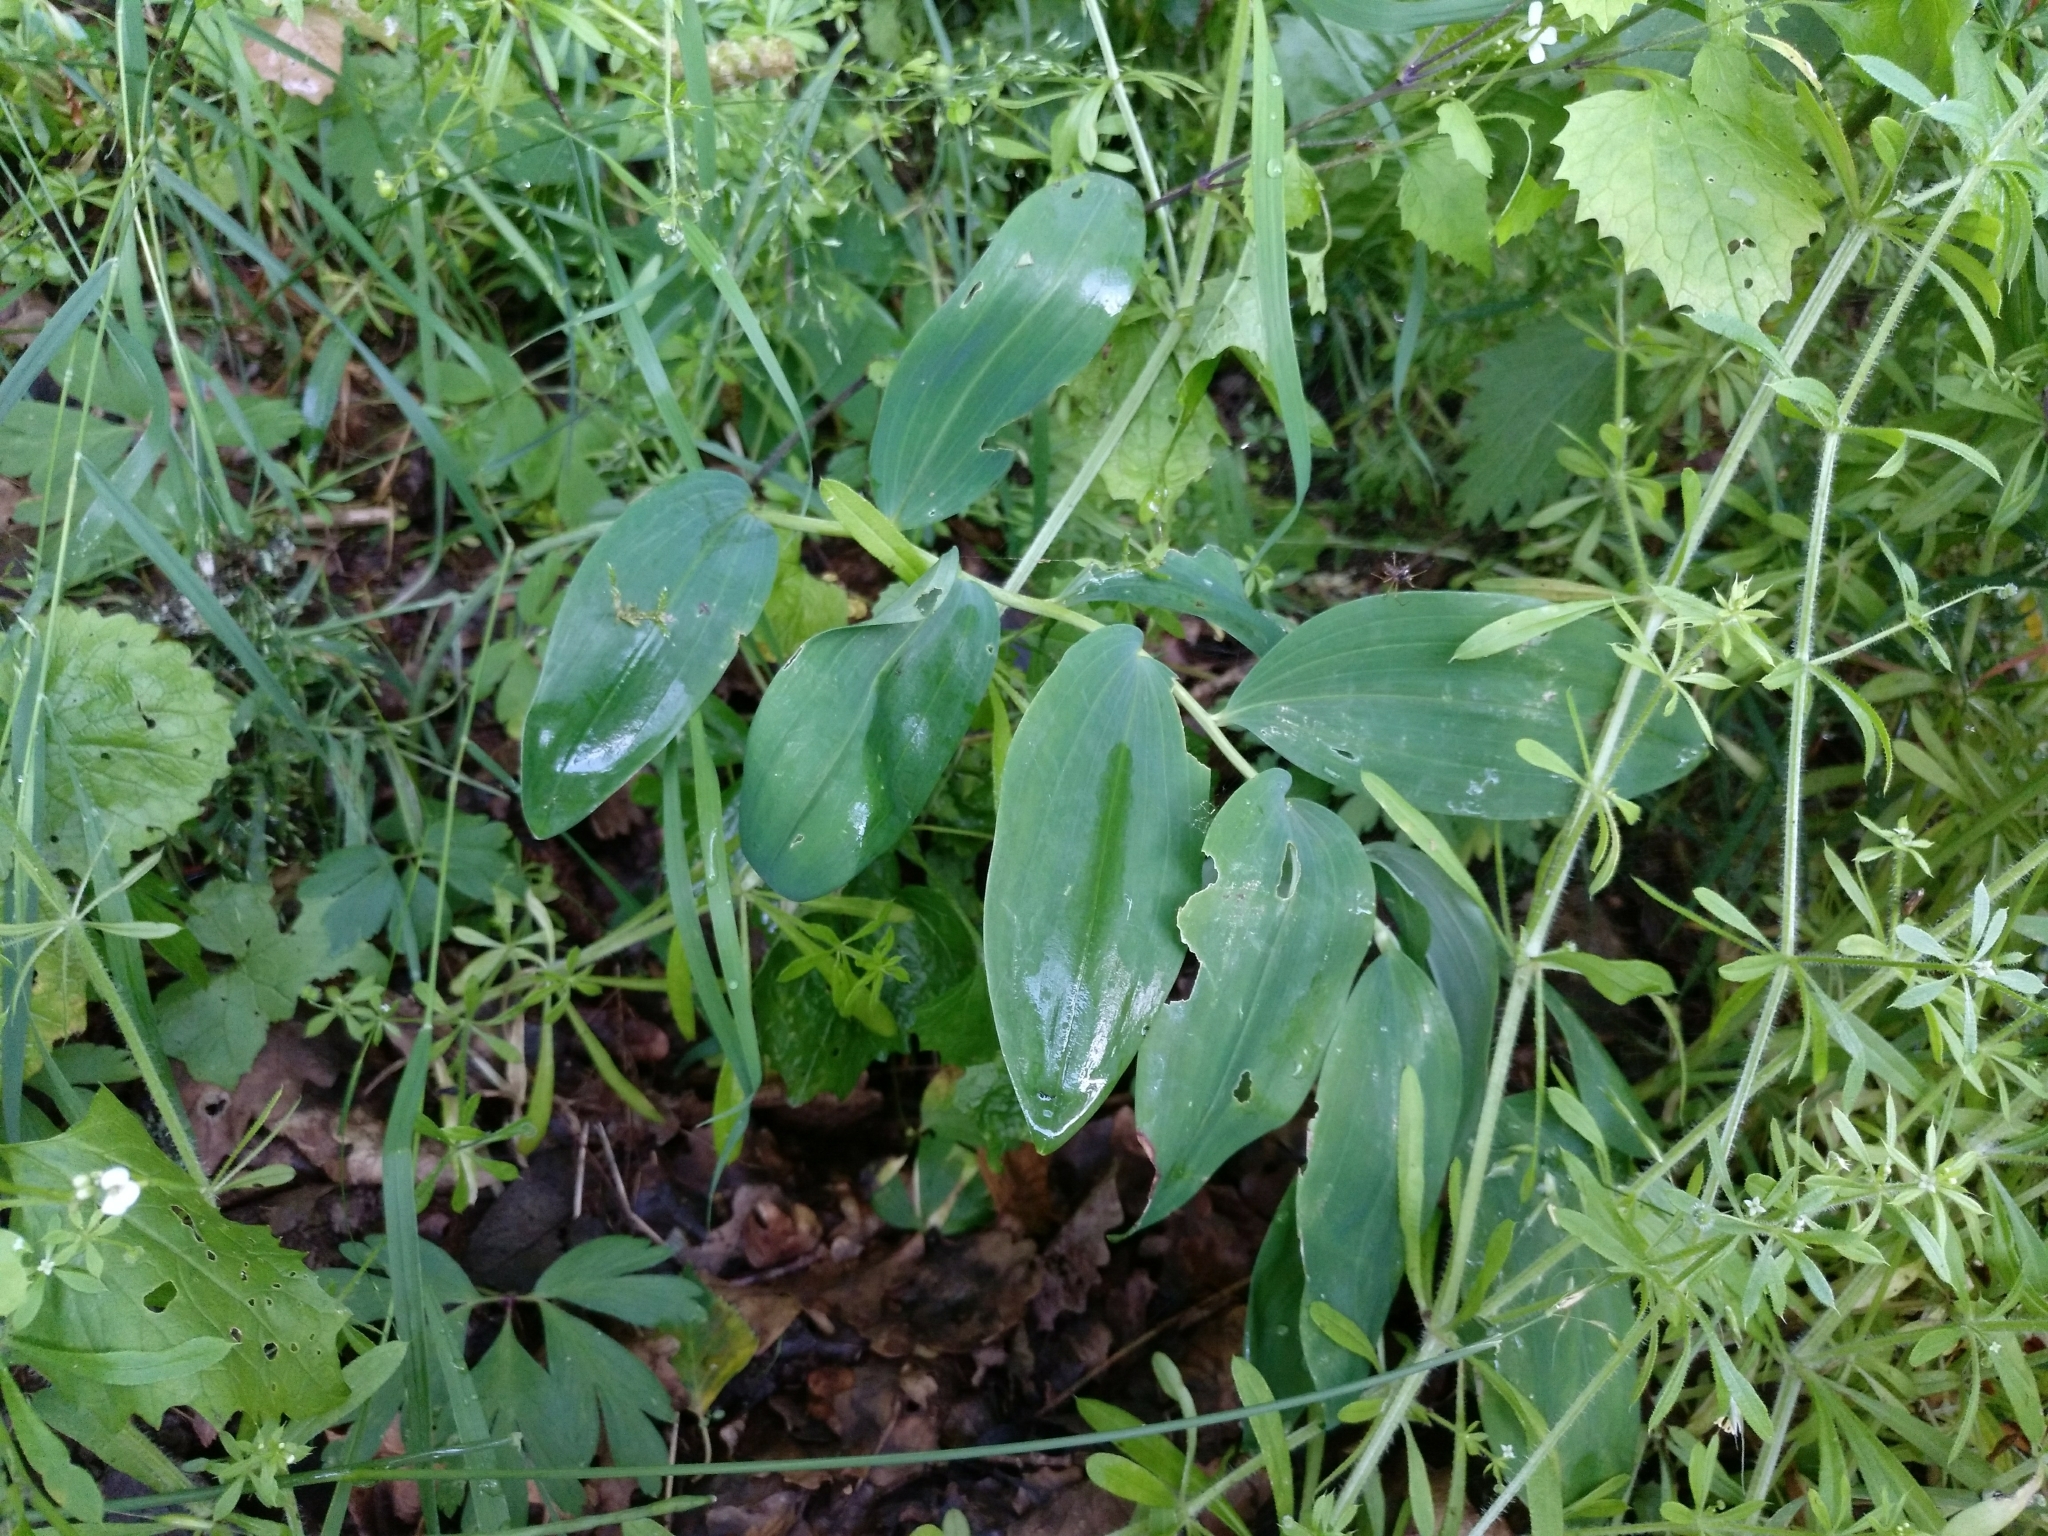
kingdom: Plantae
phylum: Tracheophyta
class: Liliopsida
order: Asparagales
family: Asparagaceae
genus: Polygonatum
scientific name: Polygonatum multiflorum
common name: Solomon's-seal
